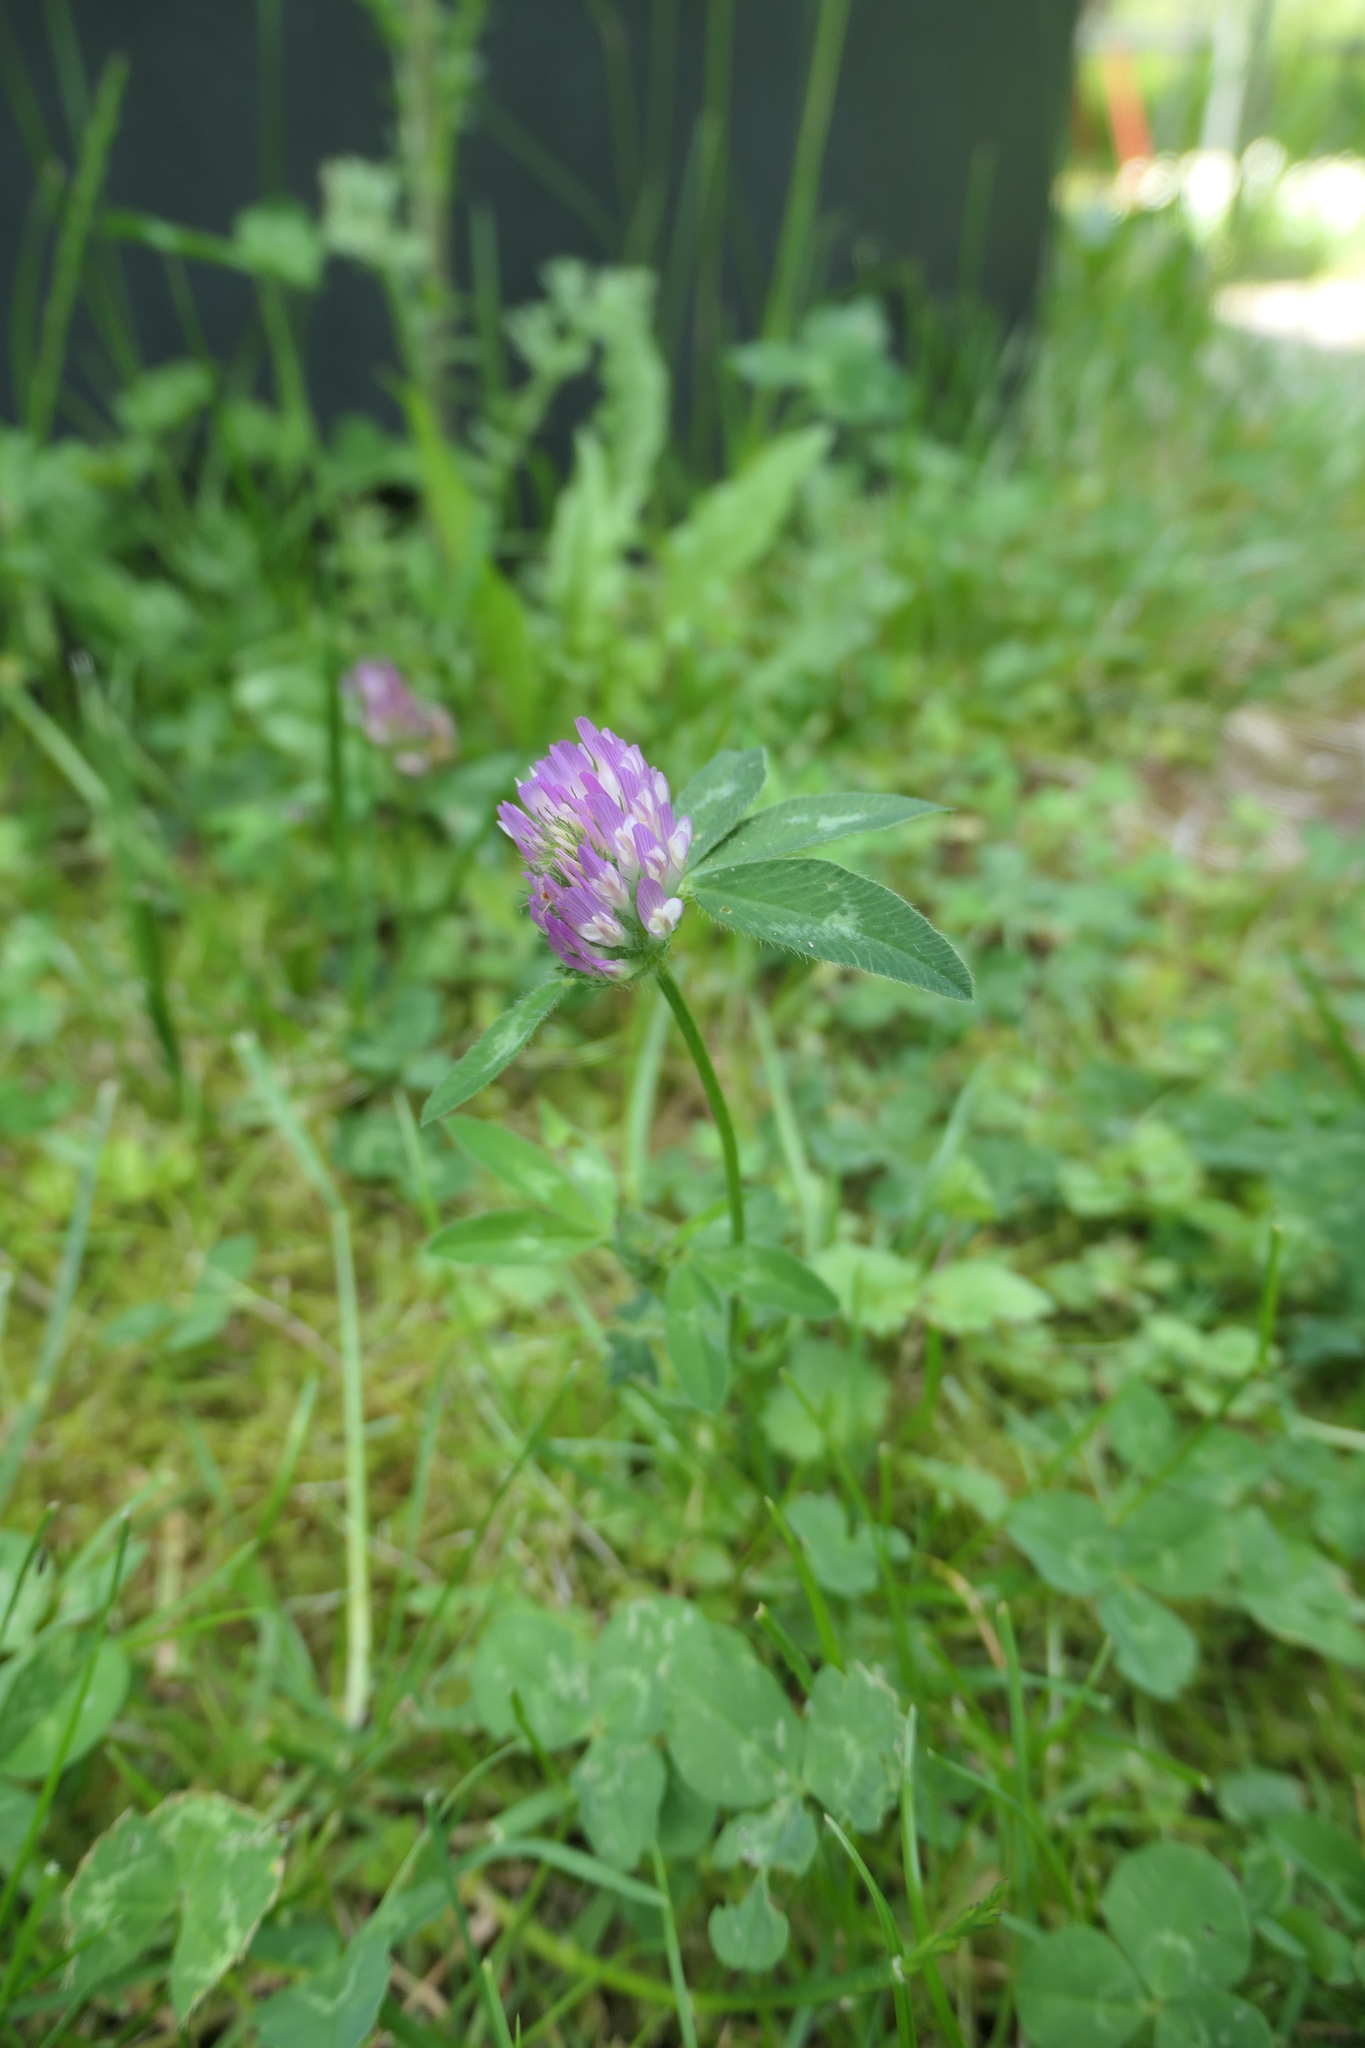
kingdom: Plantae
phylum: Tracheophyta
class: Magnoliopsida
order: Fabales
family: Fabaceae
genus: Trifolium
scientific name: Trifolium pratense
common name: Red clover
